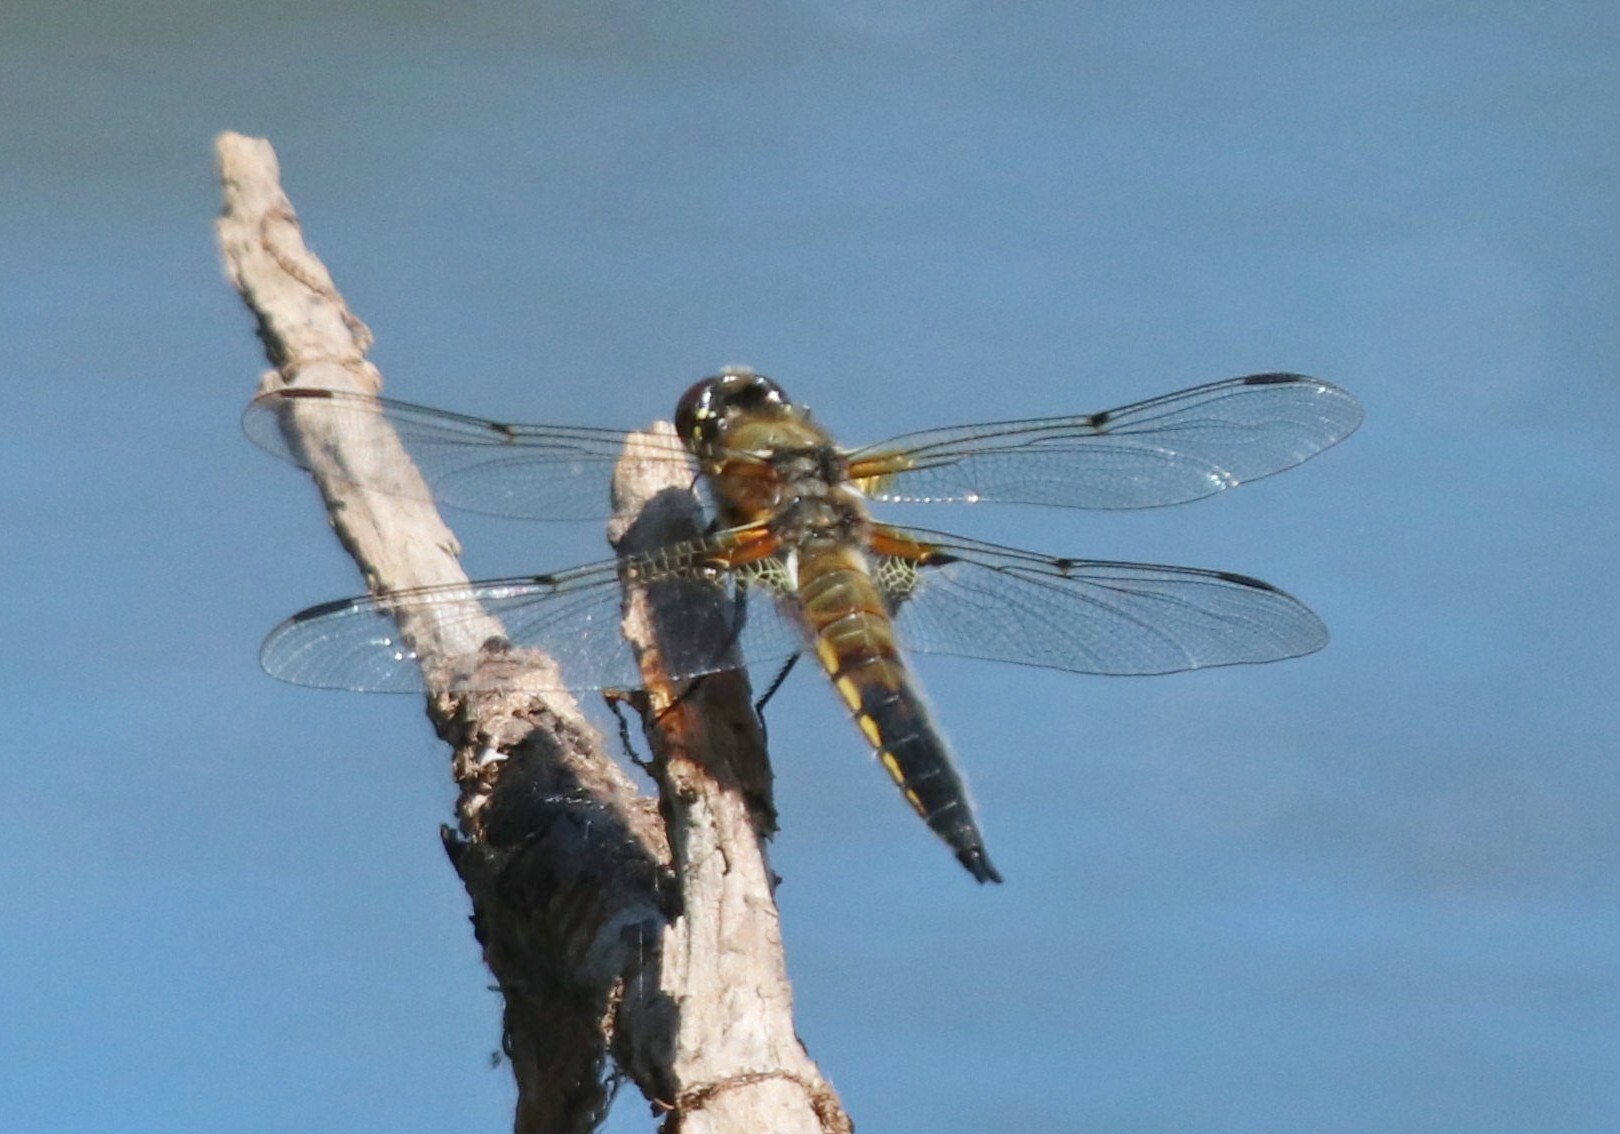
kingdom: Animalia
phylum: Arthropoda
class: Insecta
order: Odonata
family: Libellulidae
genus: Libellula
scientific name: Libellula quadrimaculata
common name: Four-spotted chaser
